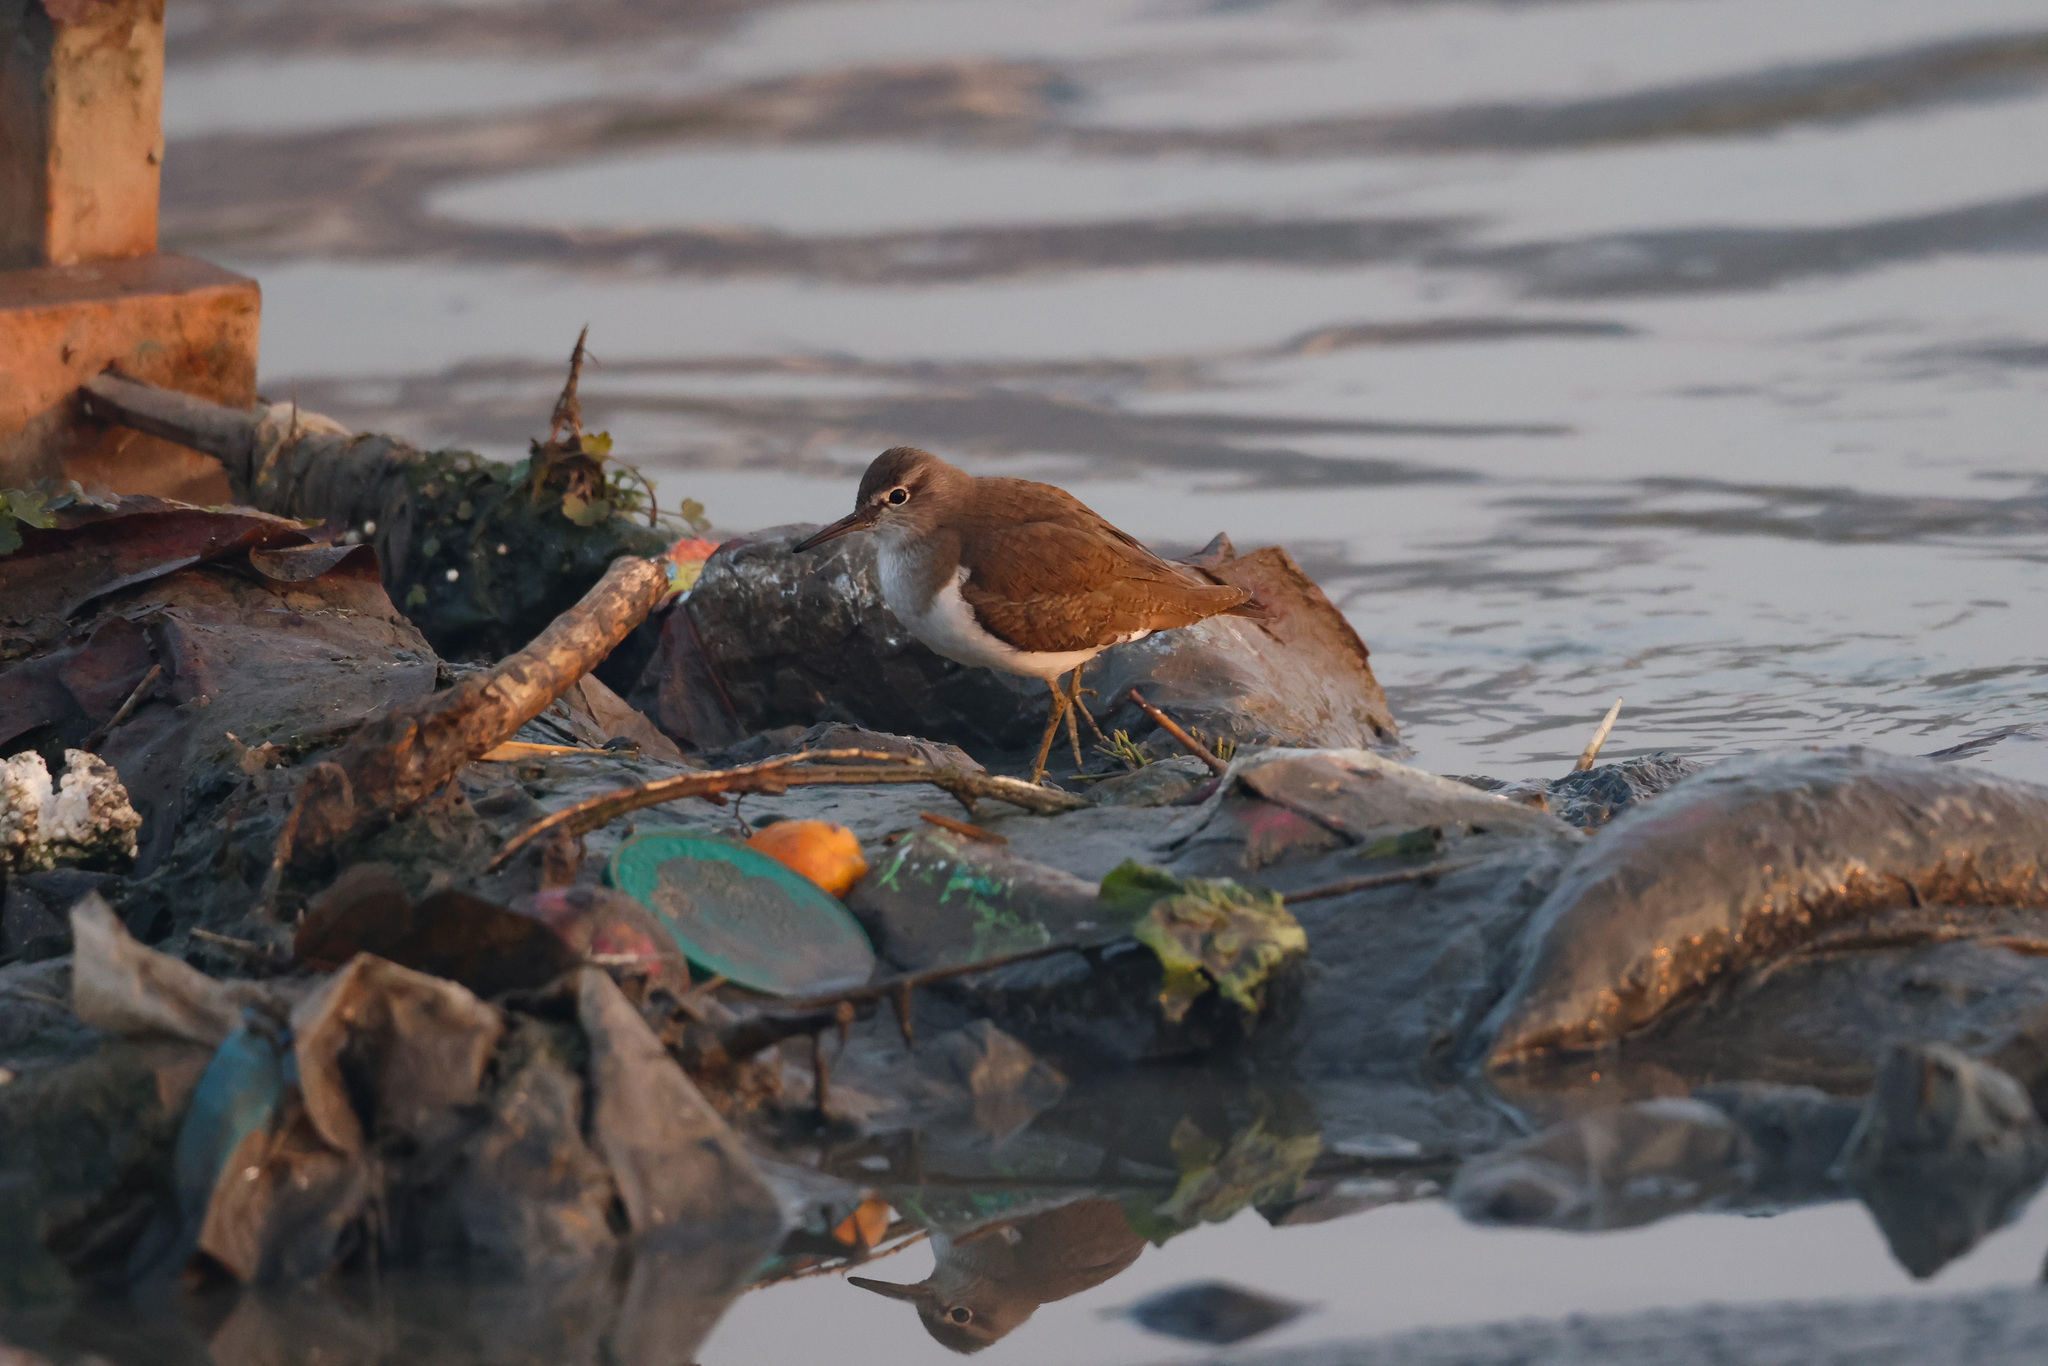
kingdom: Animalia
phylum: Chordata
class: Aves
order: Charadriiformes
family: Scolopacidae
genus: Actitis
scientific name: Actitis hypoleucos
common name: Common sandpiper
